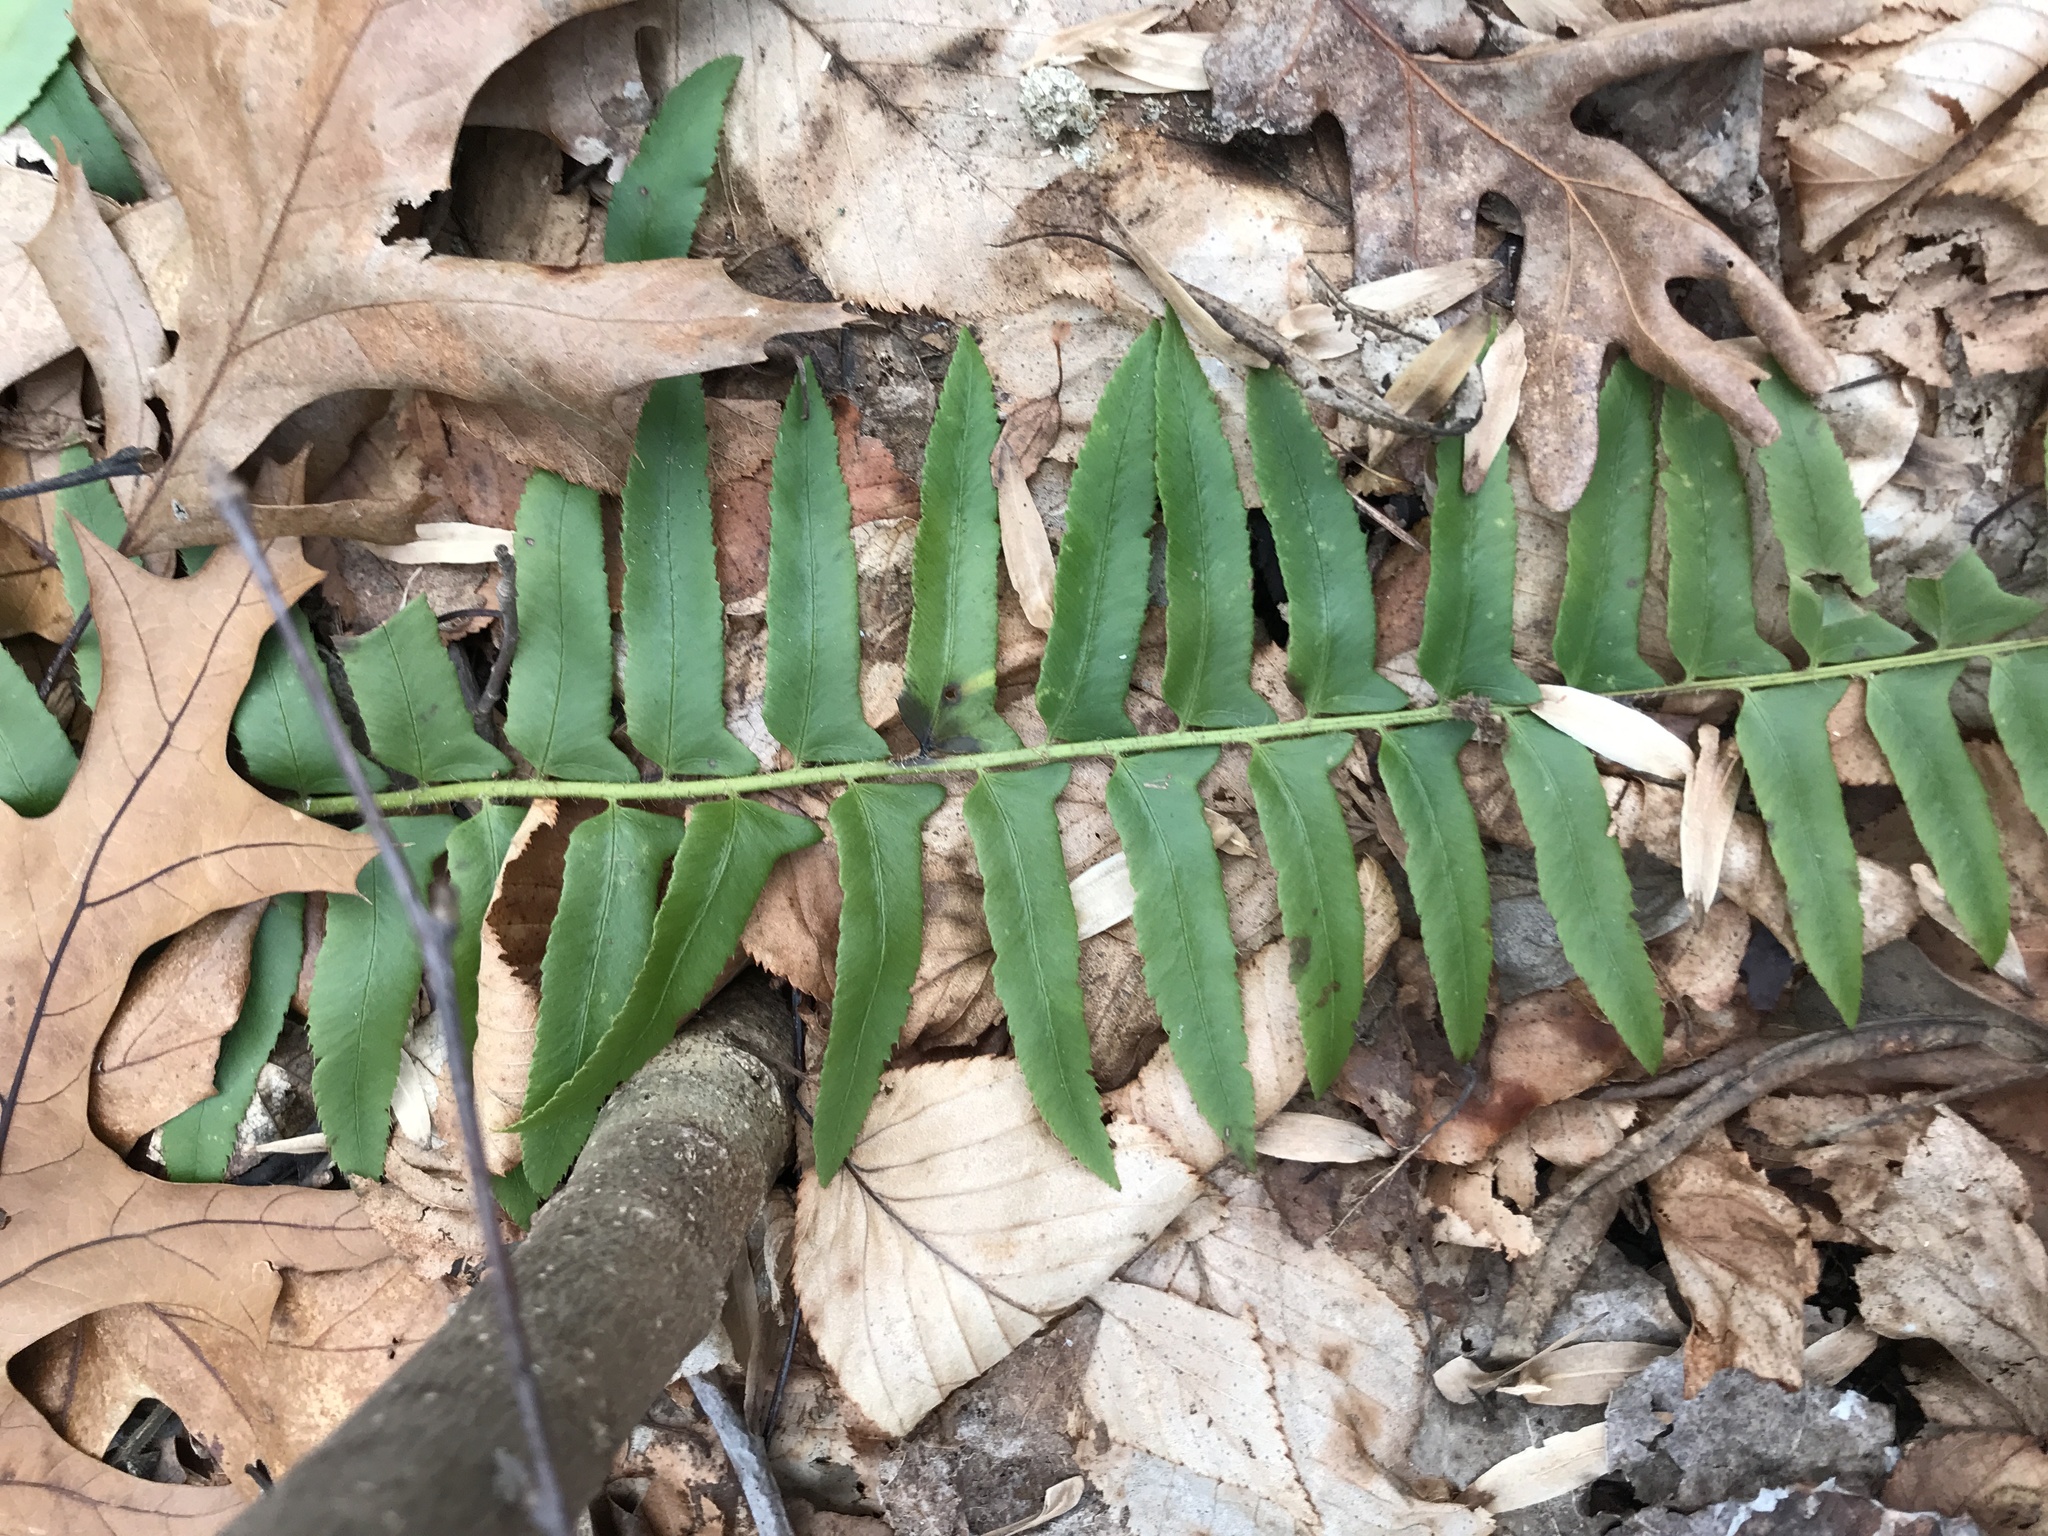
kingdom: Plantae
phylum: Tracheophyta
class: Polypodiopsida
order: Polypodiales
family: Dryopteridaceae
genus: Polystichum
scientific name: Polystichum acrostichoides
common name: Christmas fern
